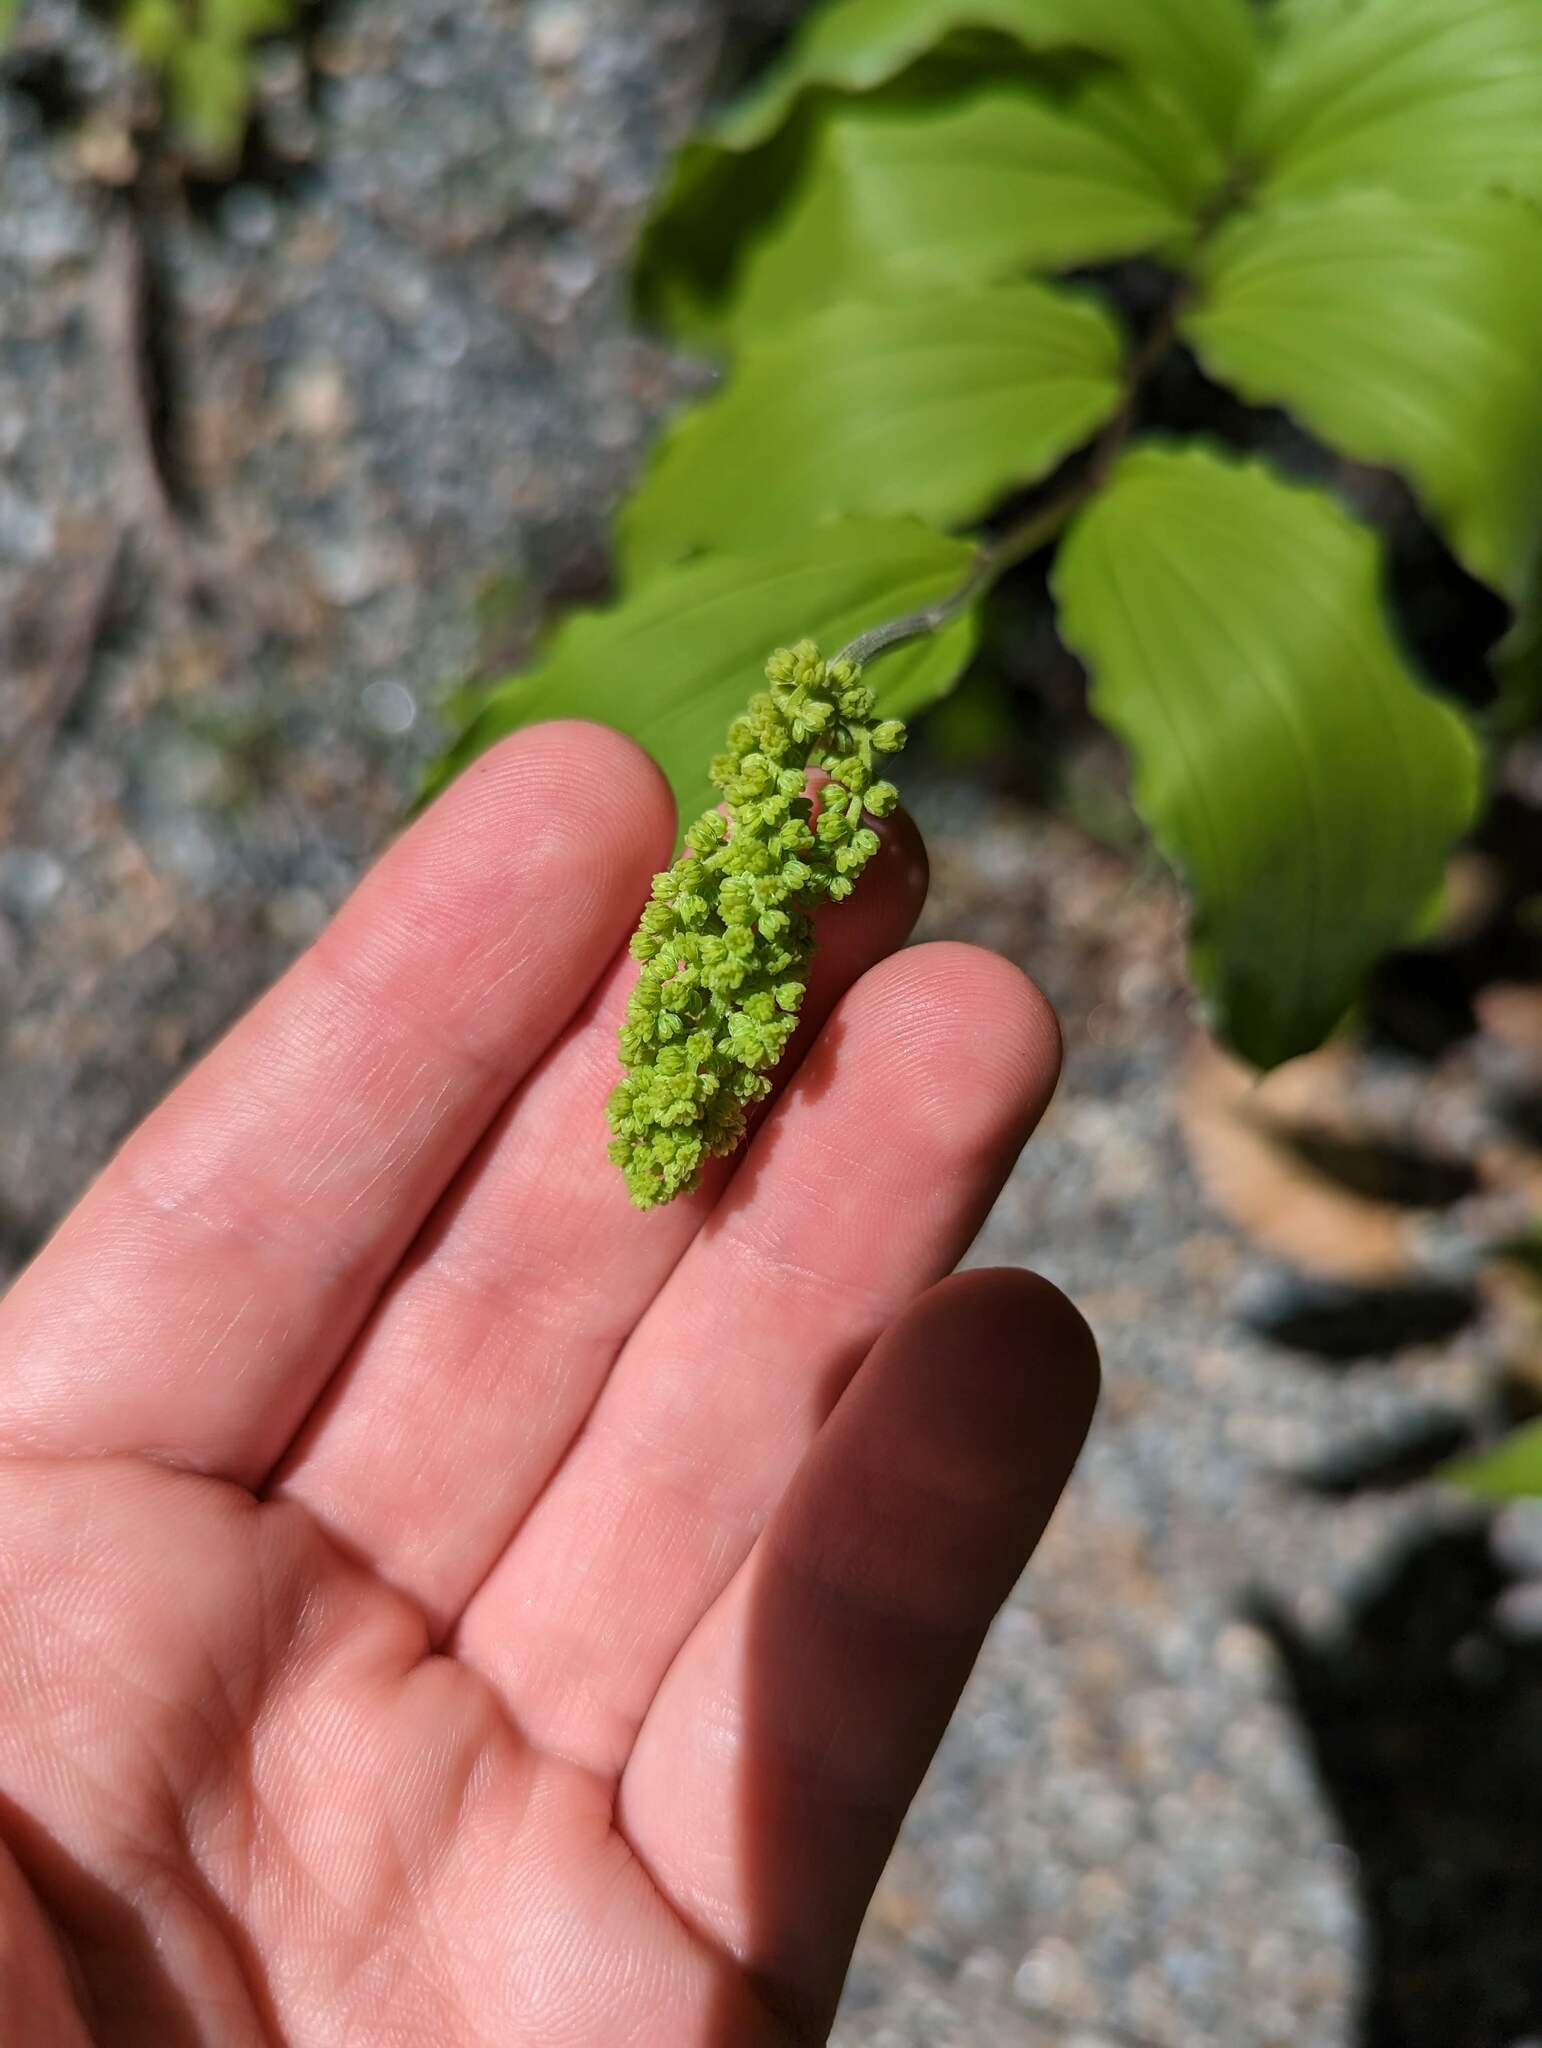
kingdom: Plantae
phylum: Tracheophyta
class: Liliopsida
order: Asparagales
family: Asparagaceae
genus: Maianthemum
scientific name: Maianthemum racemosum
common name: False spikenard
